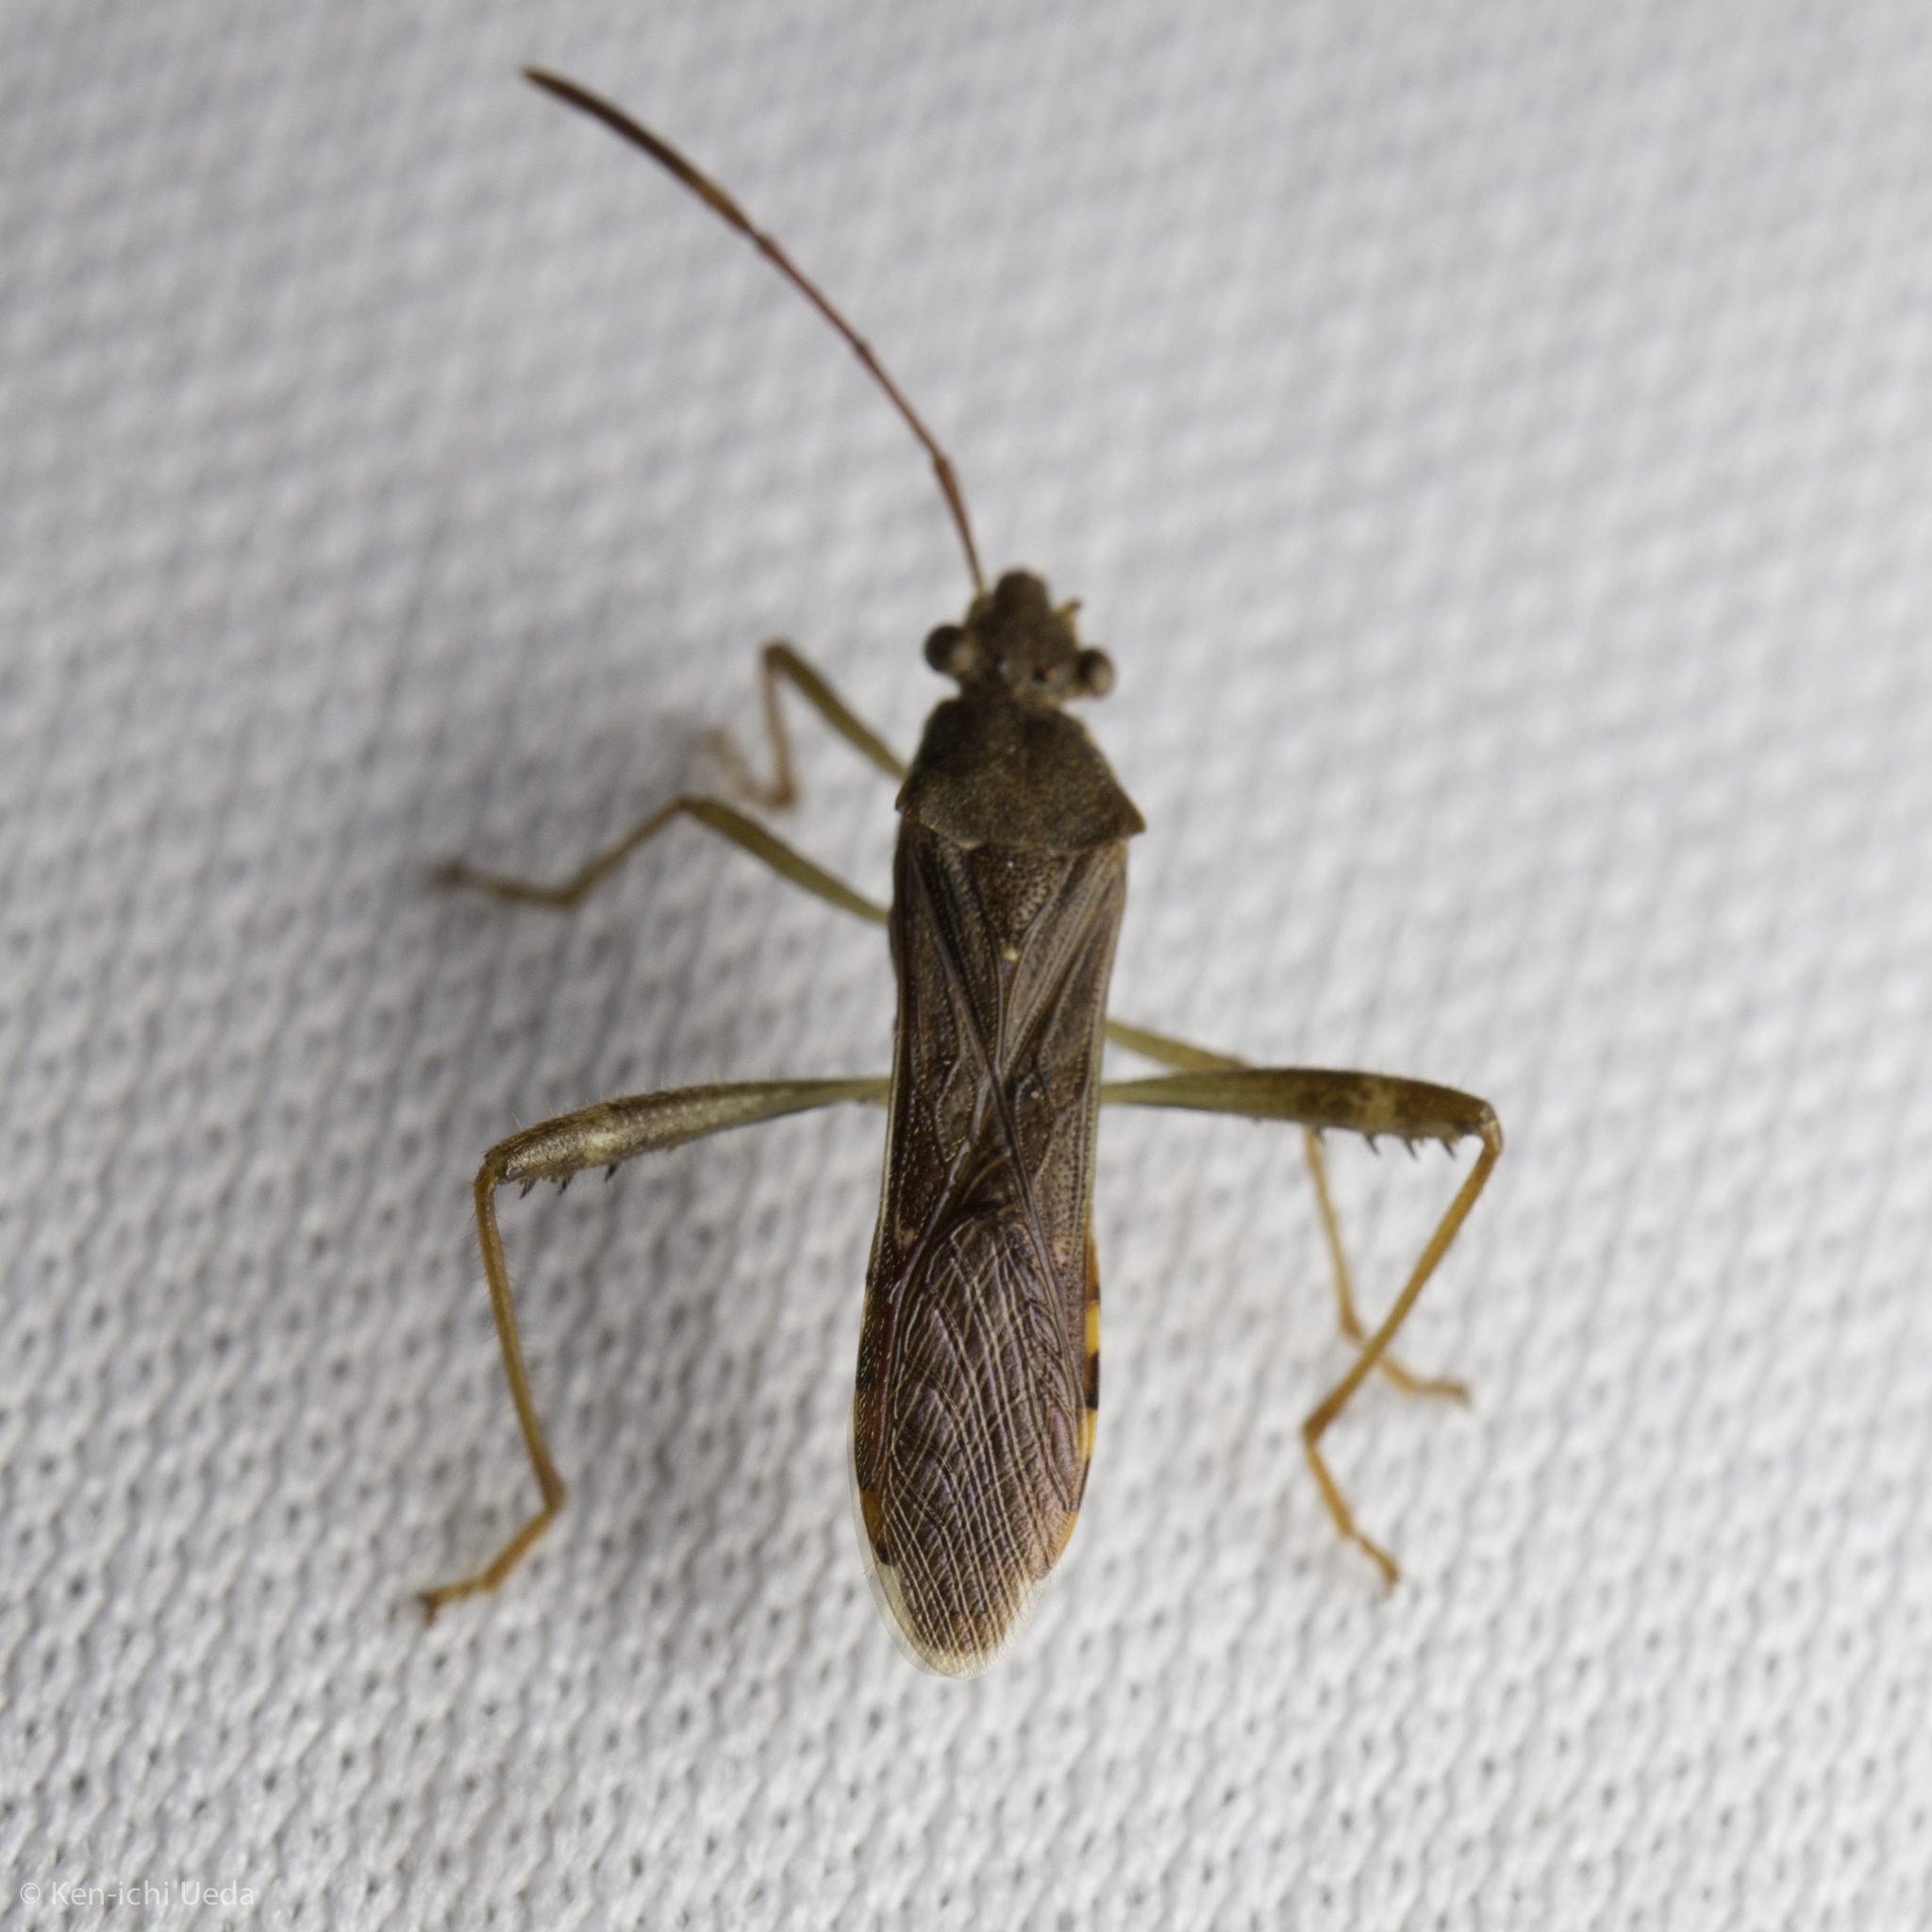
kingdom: Animalia
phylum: Arthropoda
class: Insecta
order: Hemiptera
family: Alydidae
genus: Burtinus
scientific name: Burtinus notatipennis
